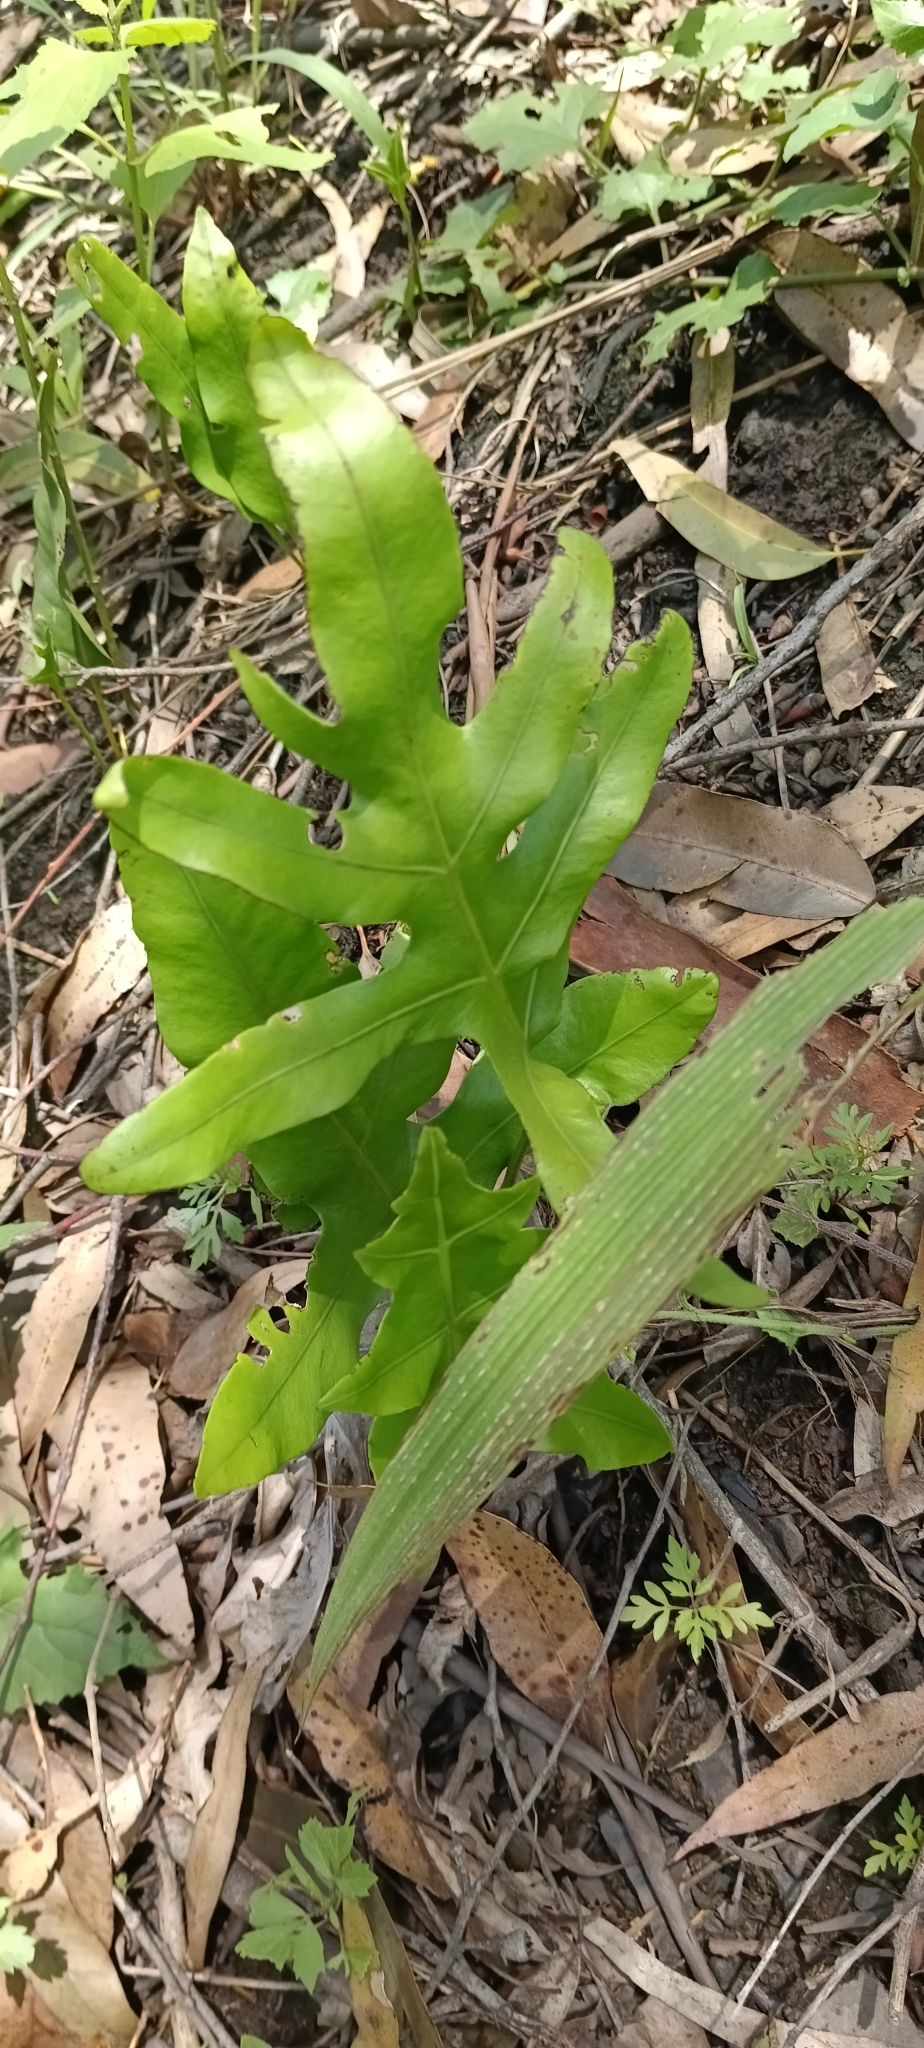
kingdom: Plantae
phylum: Tracheophyta
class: Polypodiopsida
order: Polypodiales
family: Polypodiaceae
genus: Microsorum
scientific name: Microsorum scolopendria
